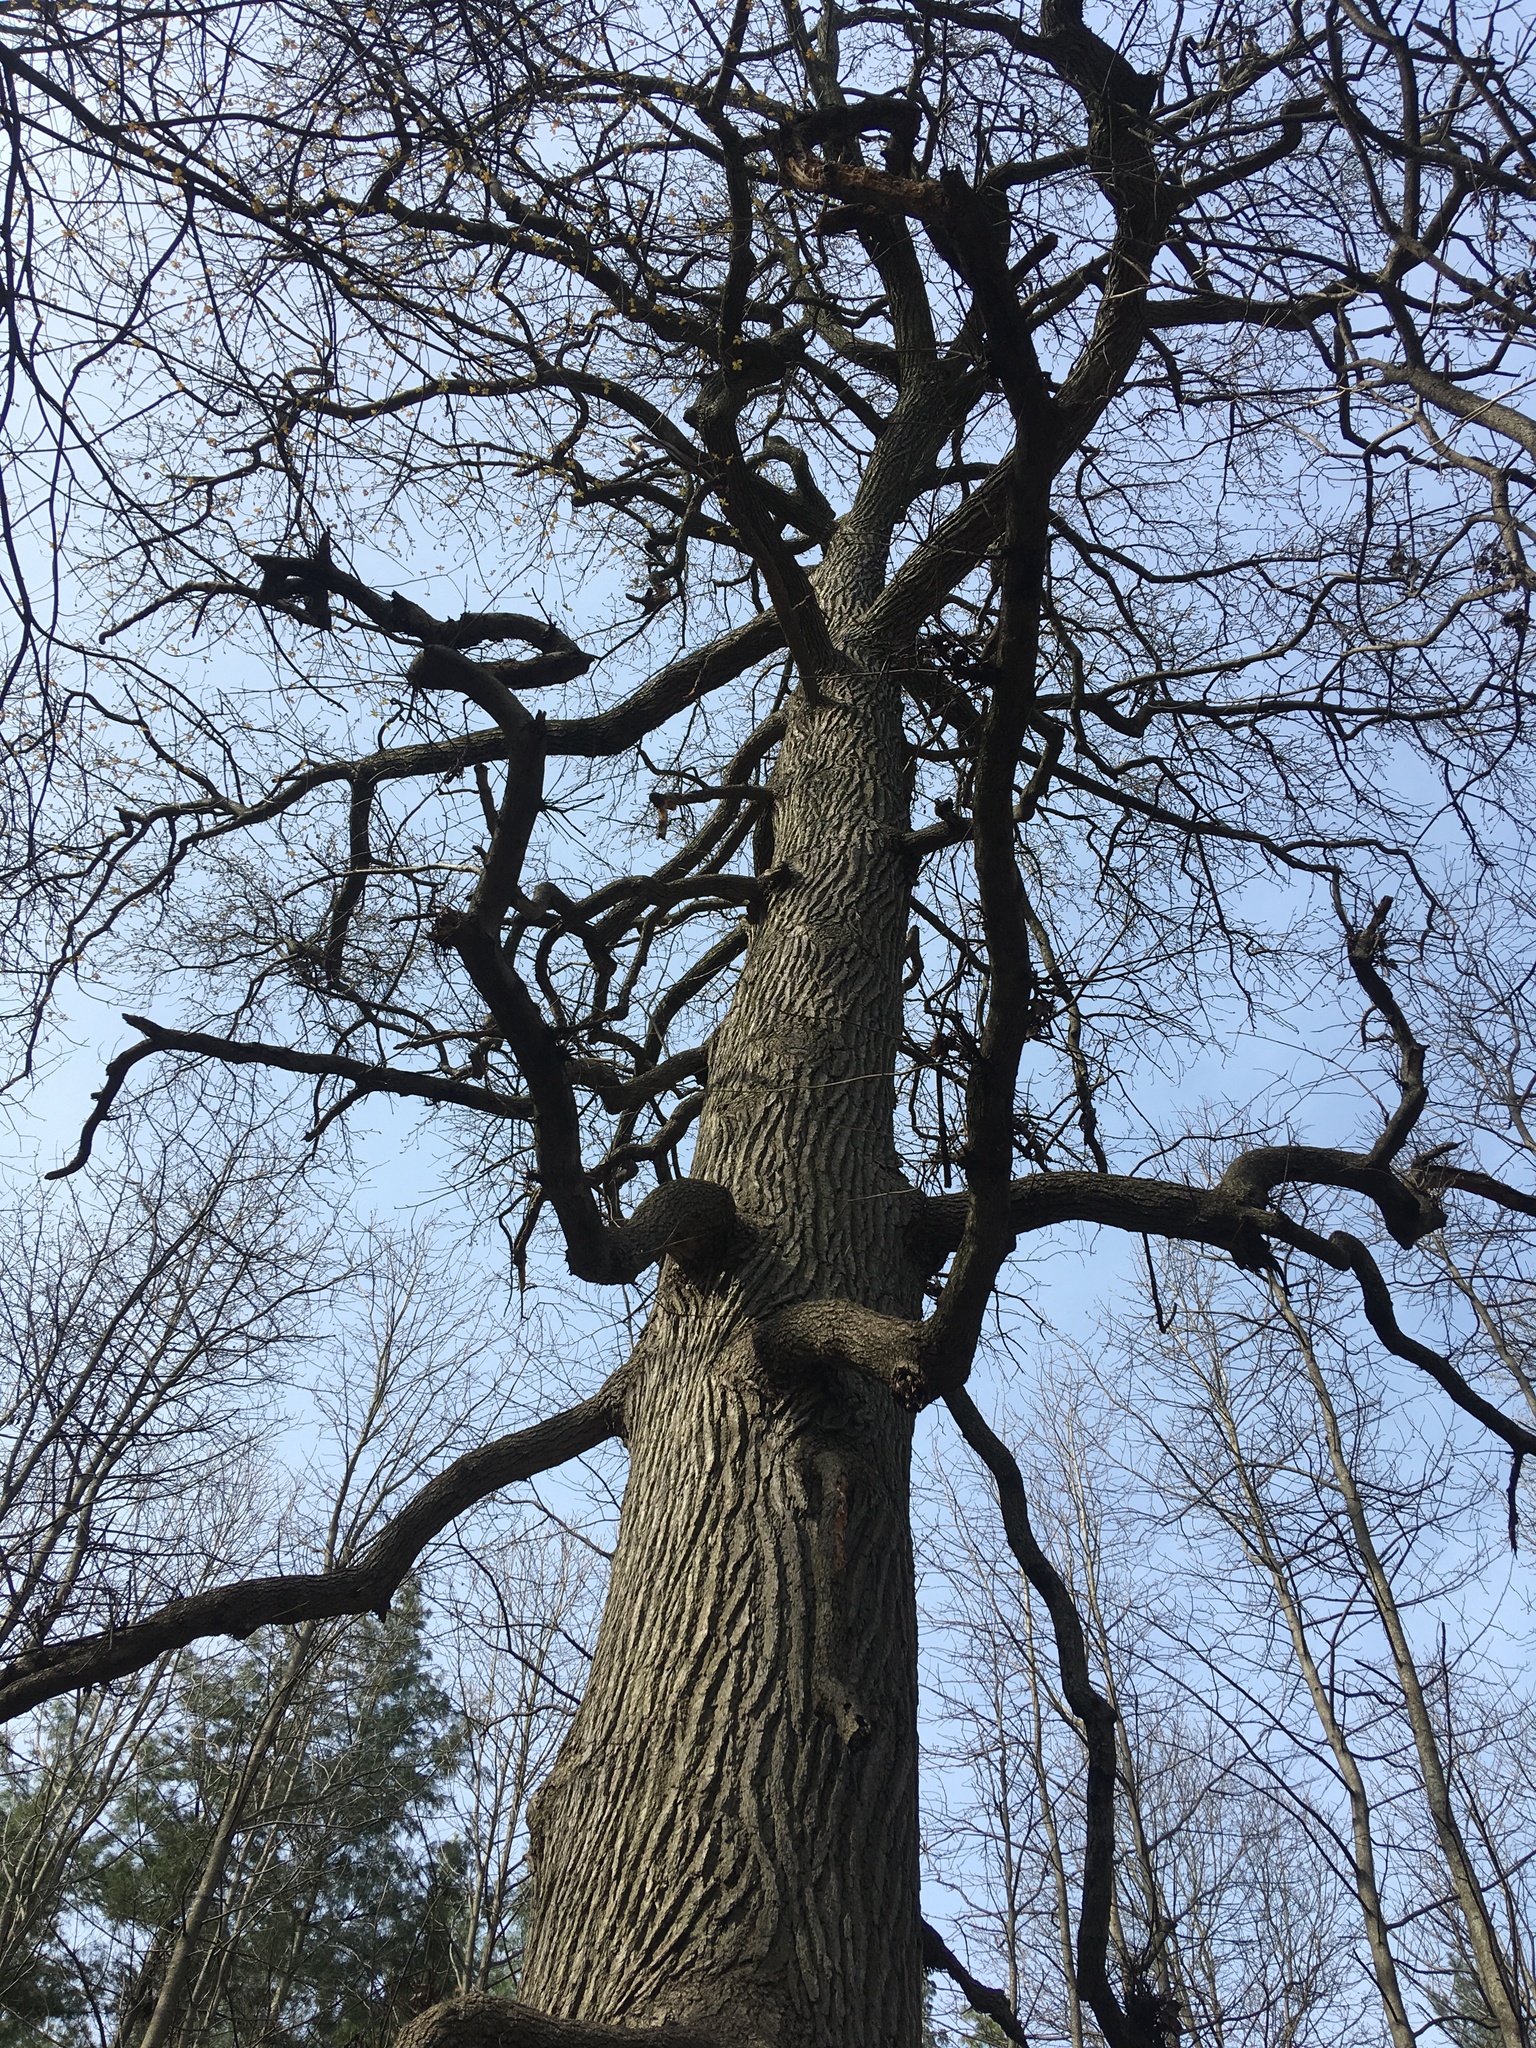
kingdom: Plantae
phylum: Tracheophyta
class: Magnoliopsida
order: Fagales
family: Fagaceae
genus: Quercus
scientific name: Quercus velutina
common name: Black oak
